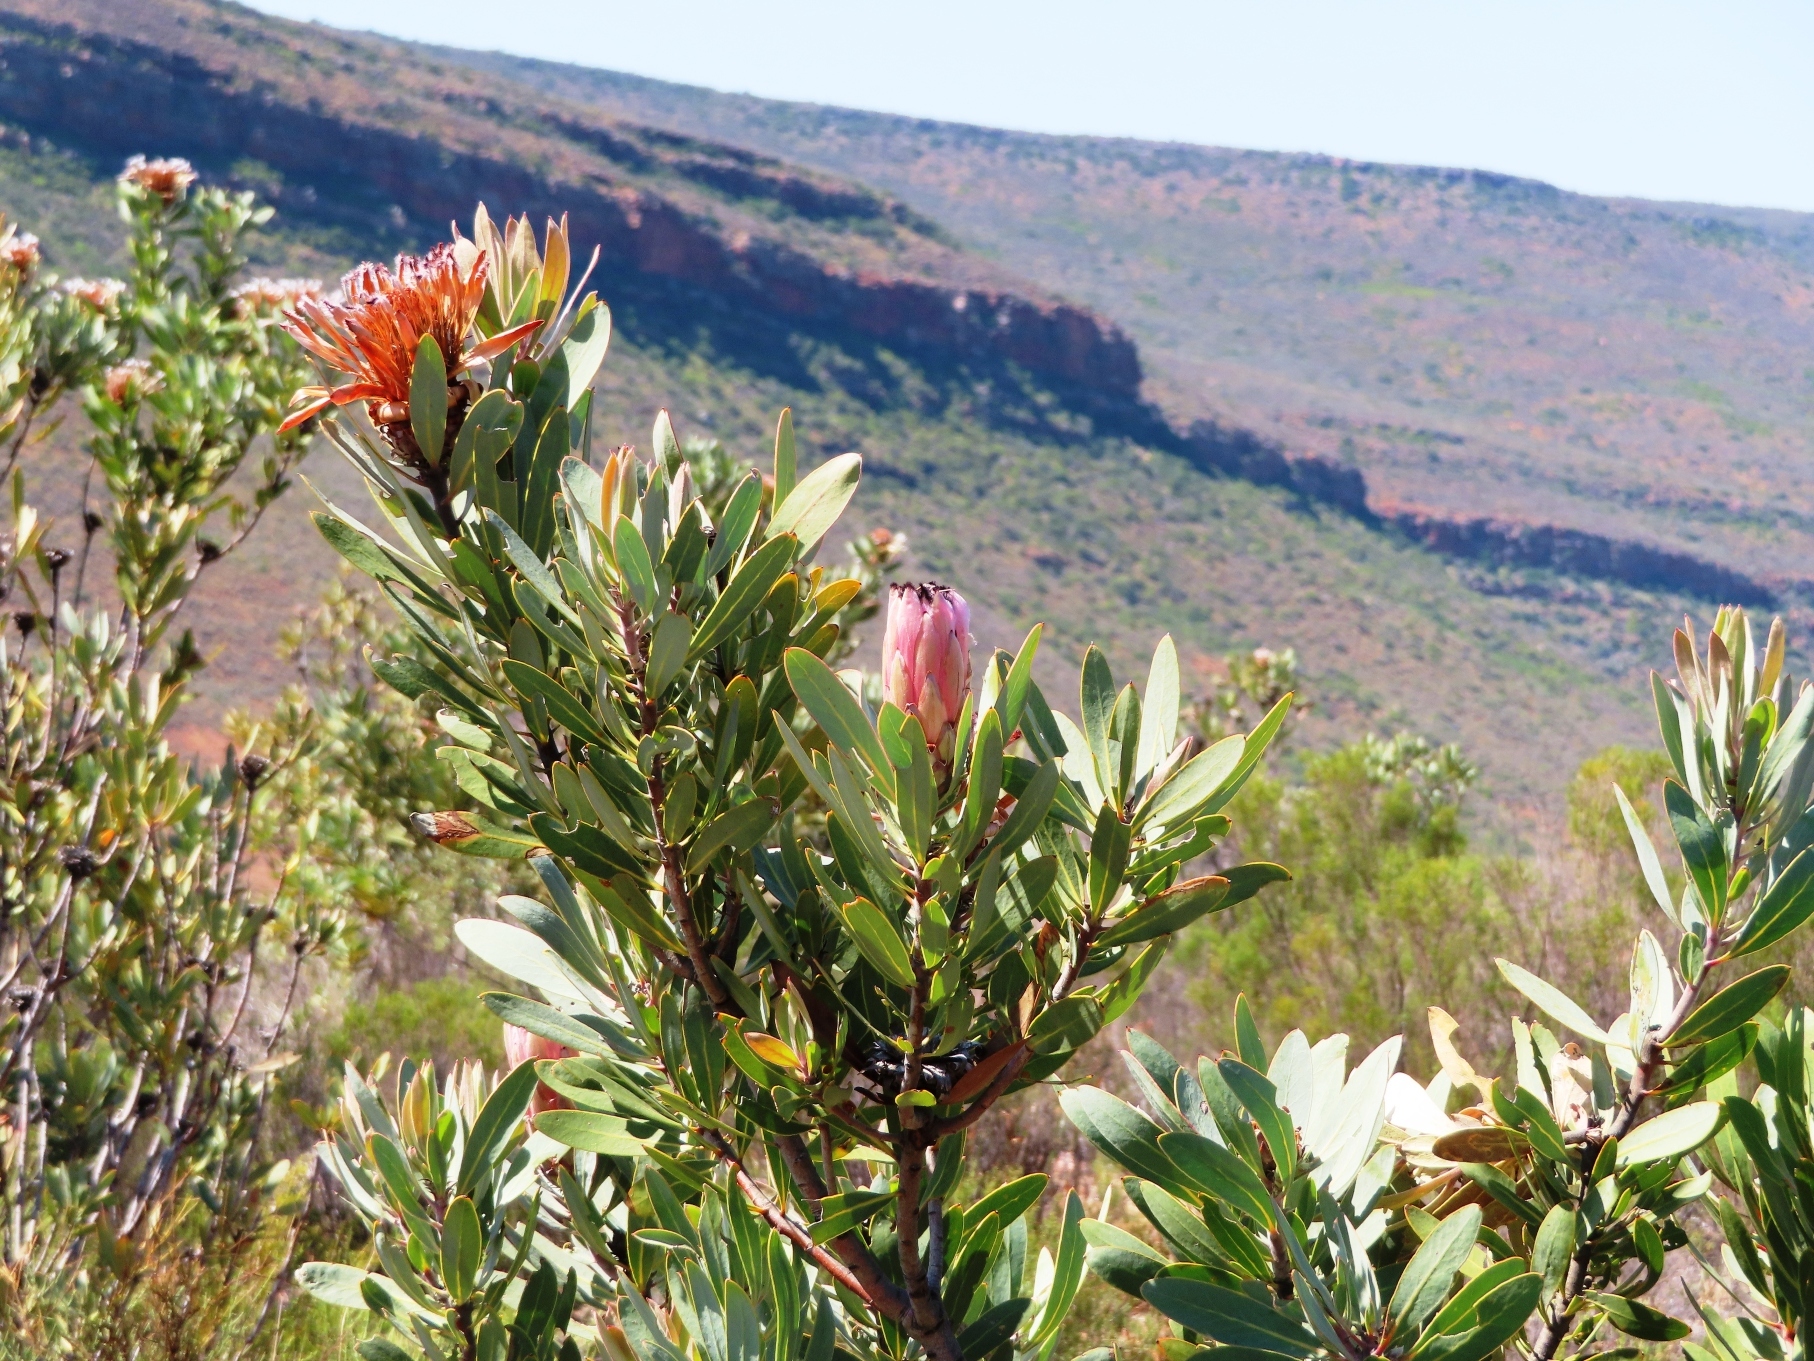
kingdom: Plantae
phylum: Tracheophyta
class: Magnoliopsida
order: Proteales
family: Proteaceae
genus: Protea
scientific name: Protea laurifolia
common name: Grey-leaf sugarbsh
